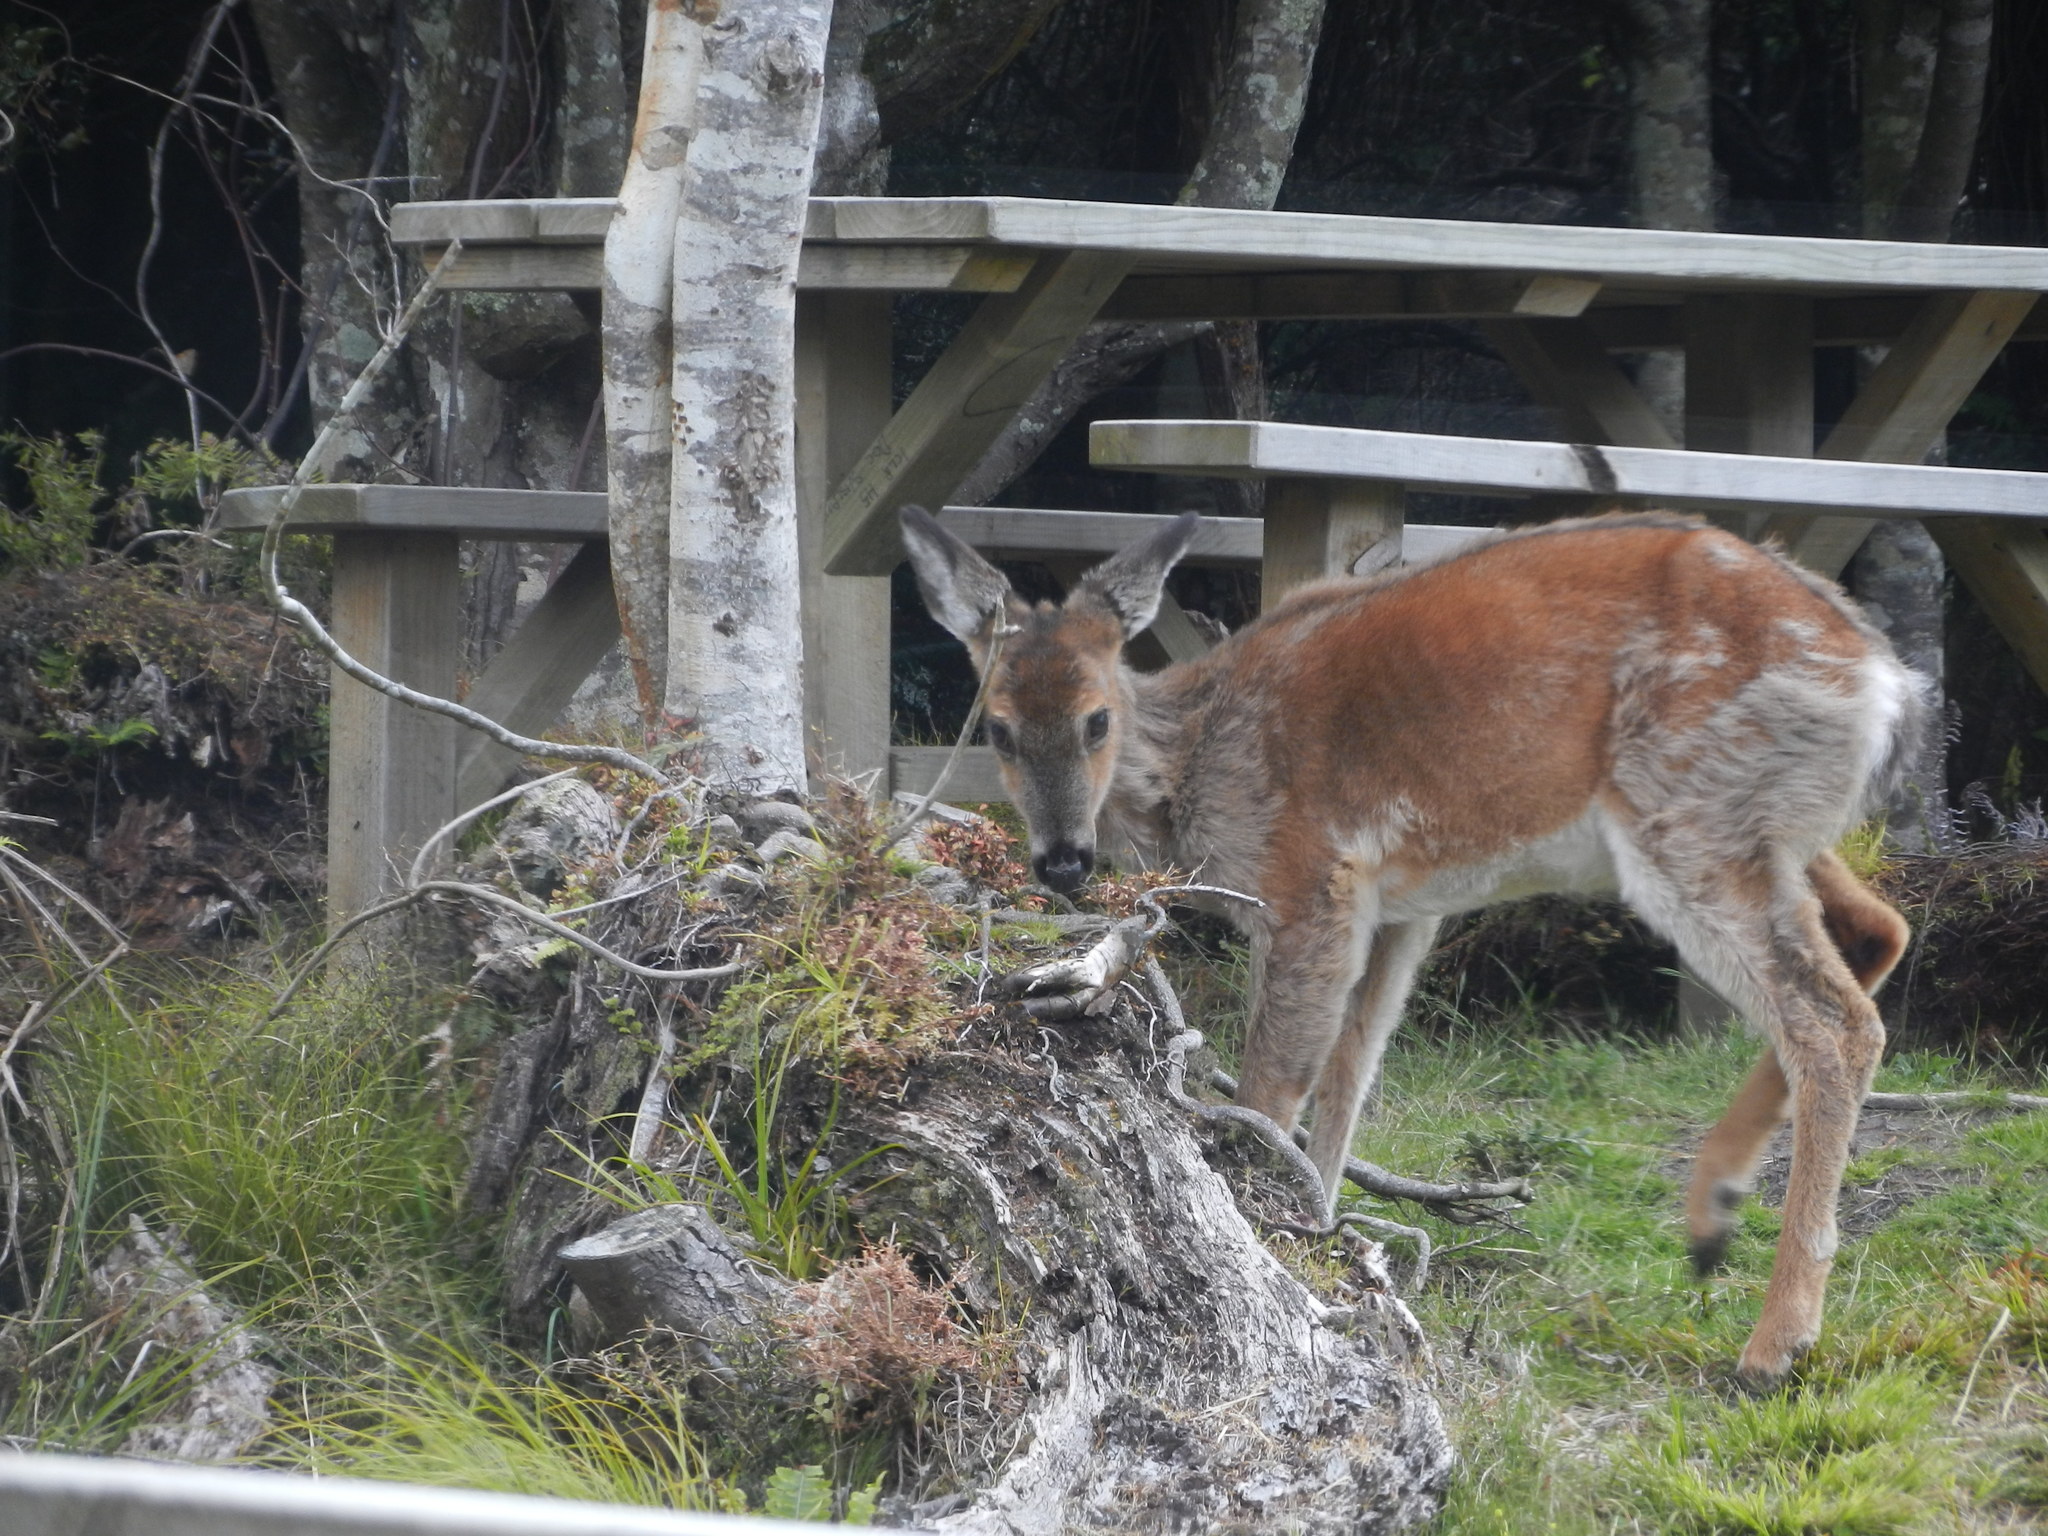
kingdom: Animalia
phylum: Chordata
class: Mammalia
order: Artiodactyla
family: Cervidae
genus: Odocoileus
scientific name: Odocoileus virginianus
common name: White-tailed deer
